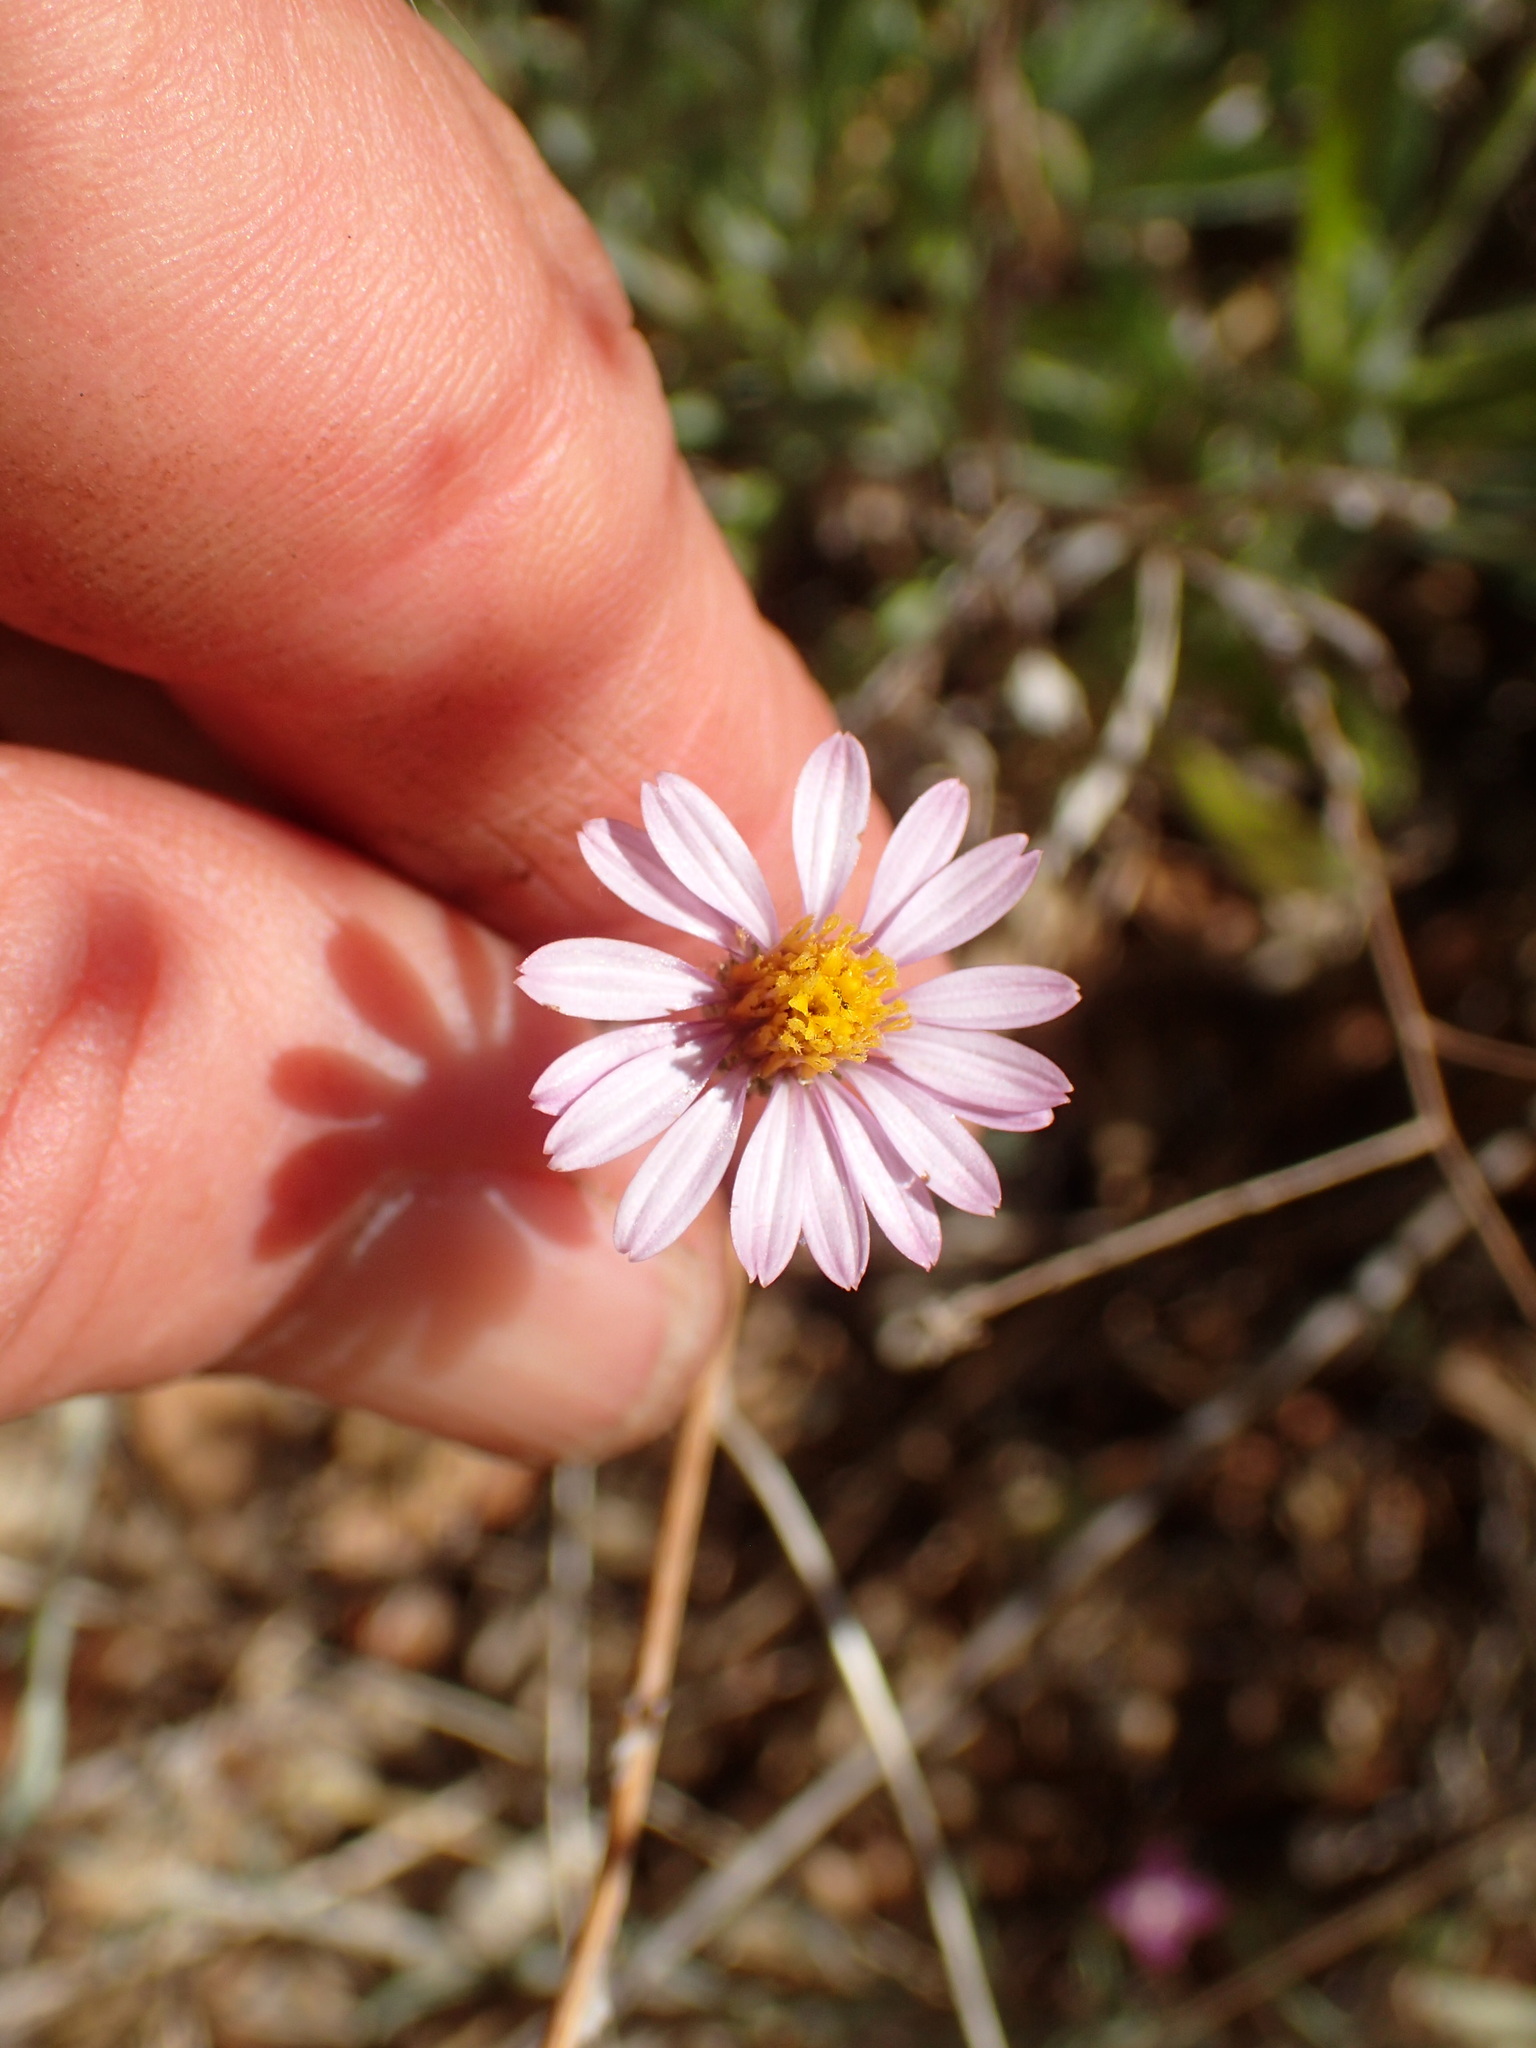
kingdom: Plantae
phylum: Tracheophyta
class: Magnoliopsida
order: Asterales
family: Asteraceae
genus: Corethrogyne
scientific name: Corethrogyne filaginifolia
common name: Sand-aster
